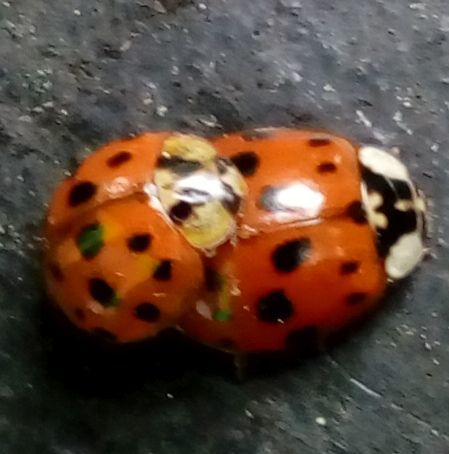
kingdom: Animalia
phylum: Arthropoda
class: Insecta
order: Coleoptera
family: Coccinellidae
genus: Harmonia
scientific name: Harmonia axyridis
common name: Harlequin ladybird
